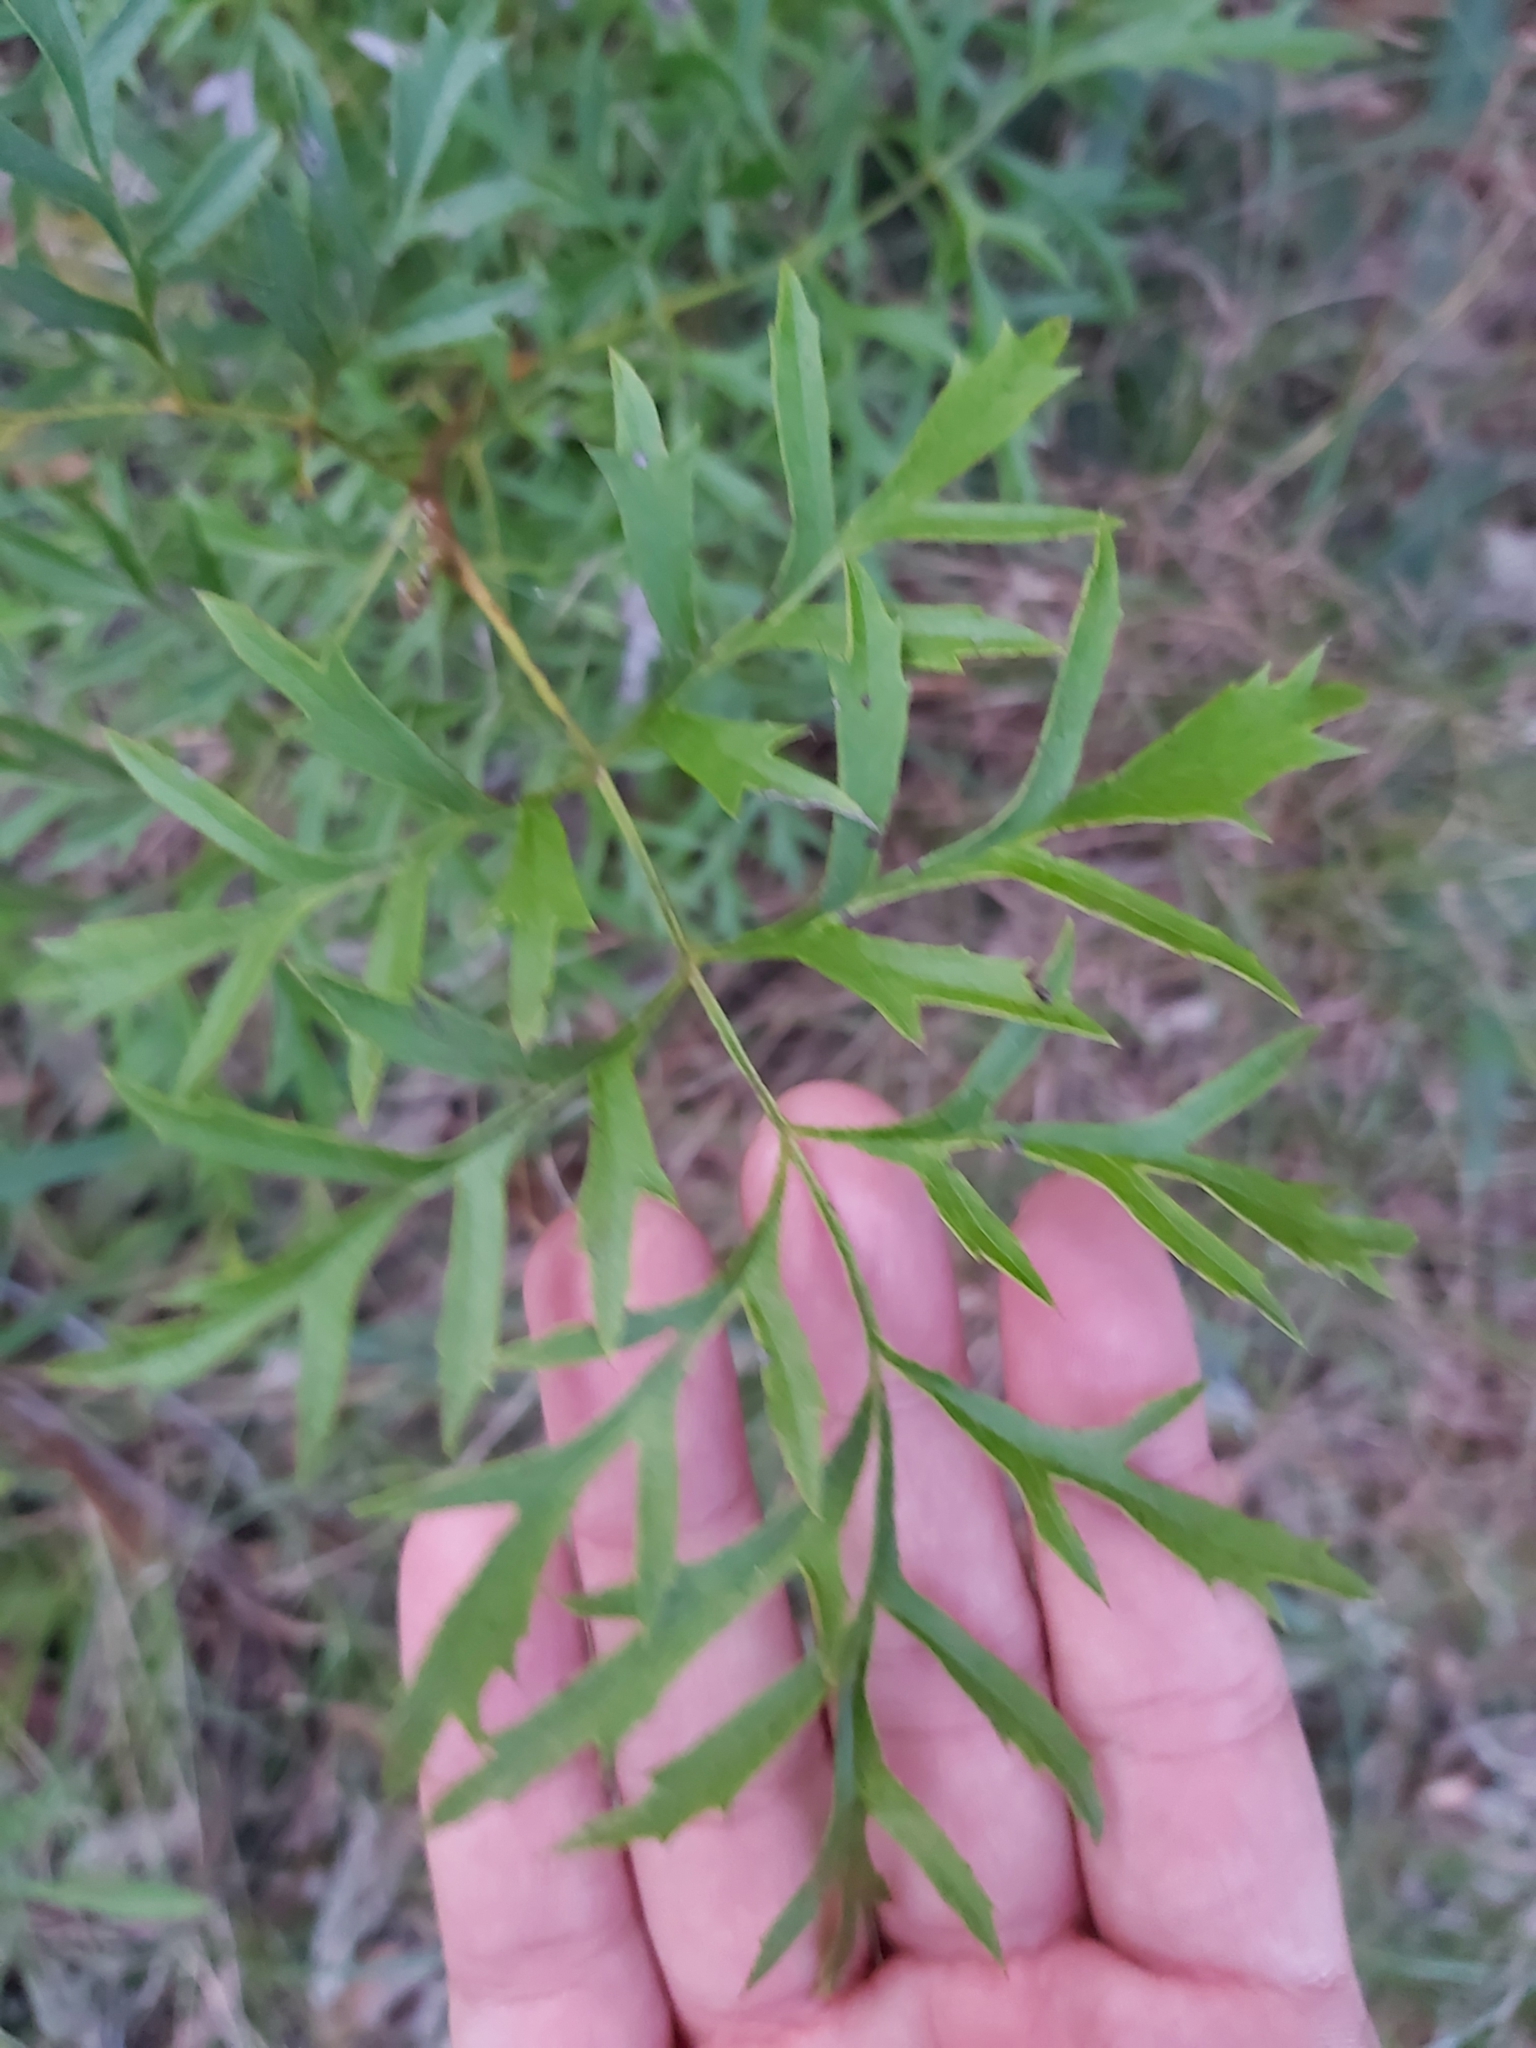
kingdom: Plantae
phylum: Tracheophyta
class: Magnoliopsida
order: Proteales
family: Proteaceae
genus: Lomatia
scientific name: Lomatia silaifolia
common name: Crinklebush
